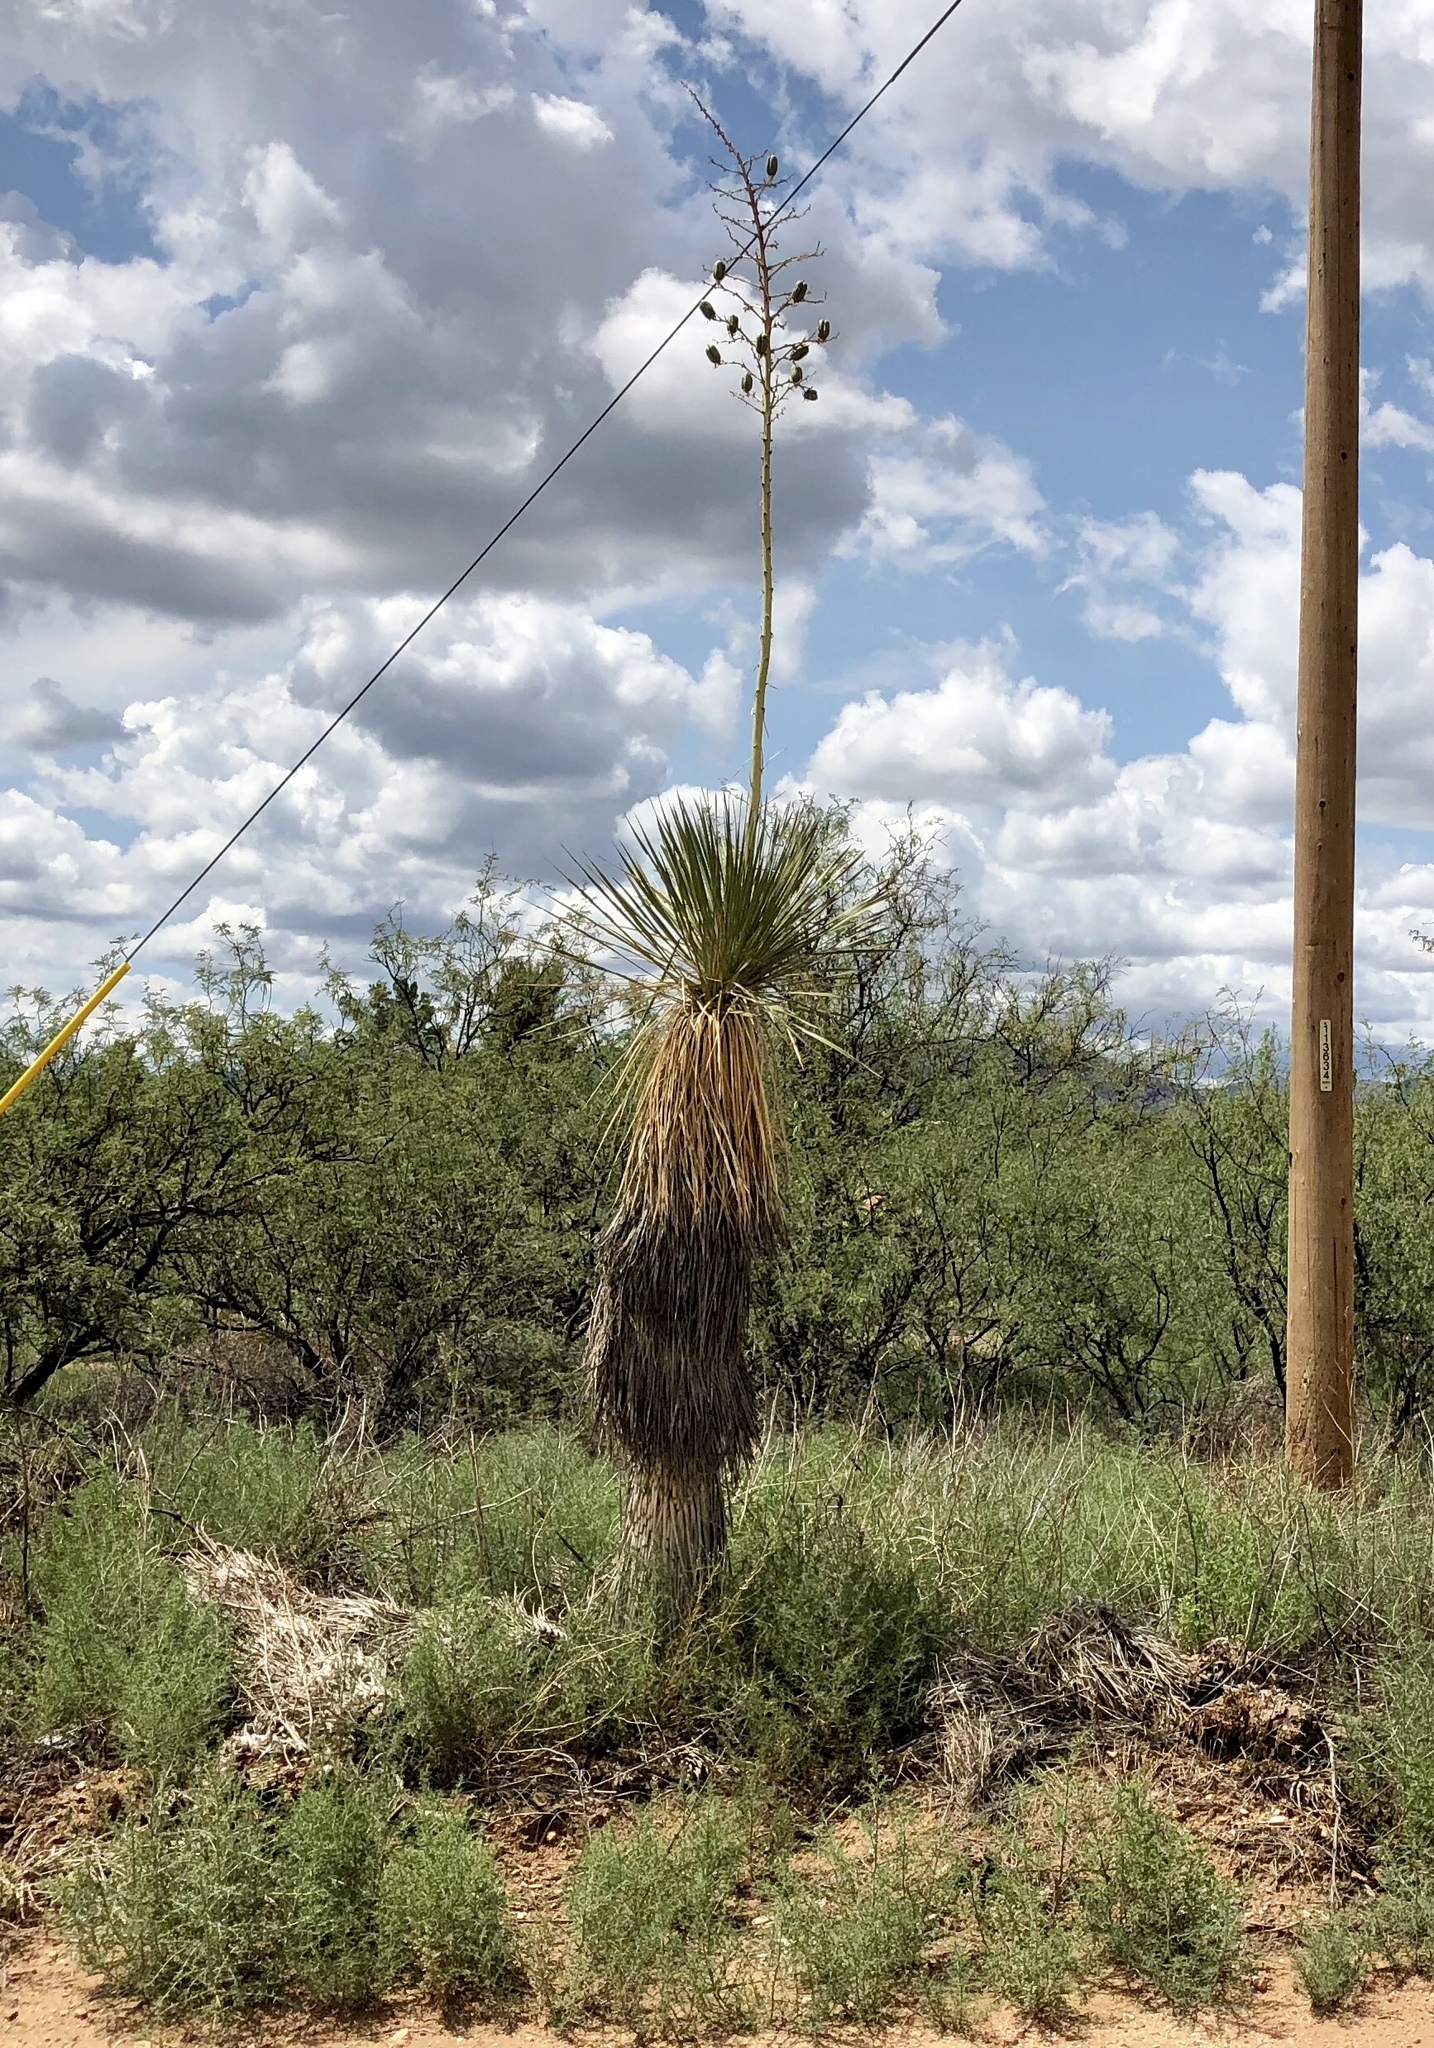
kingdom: Plantae
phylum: Tracheophyta
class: Liliopsida
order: Asparagales
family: Asparagaceae
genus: Yucca
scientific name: Yucca elata
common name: Palmella
